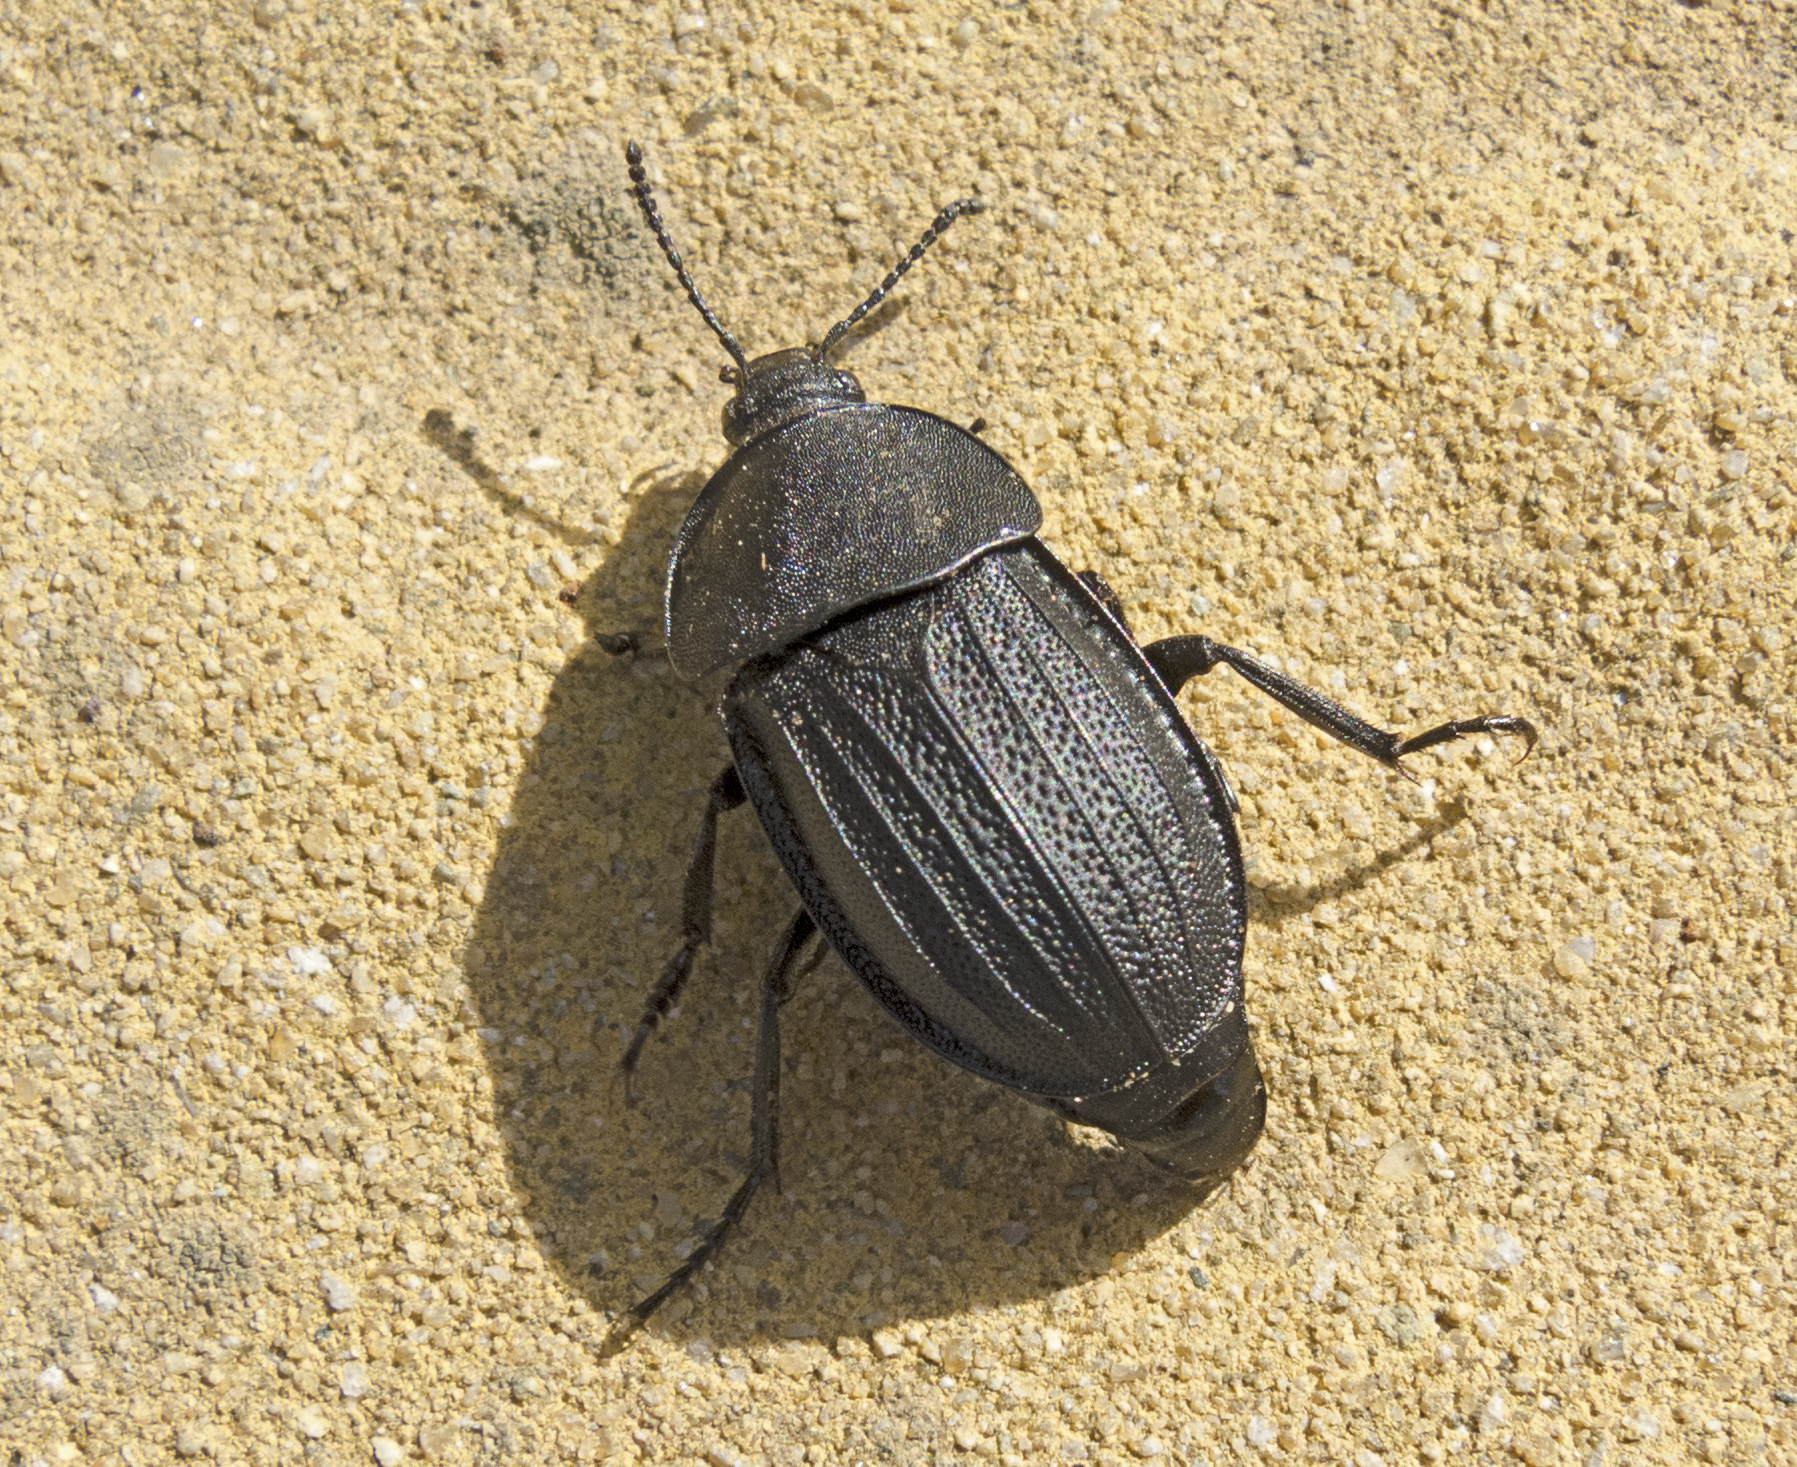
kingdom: Animalia
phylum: Arthropoda
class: Insecta
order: Coleoptera
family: Staphylinidae
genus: Silpha
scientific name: Silpha obscura
